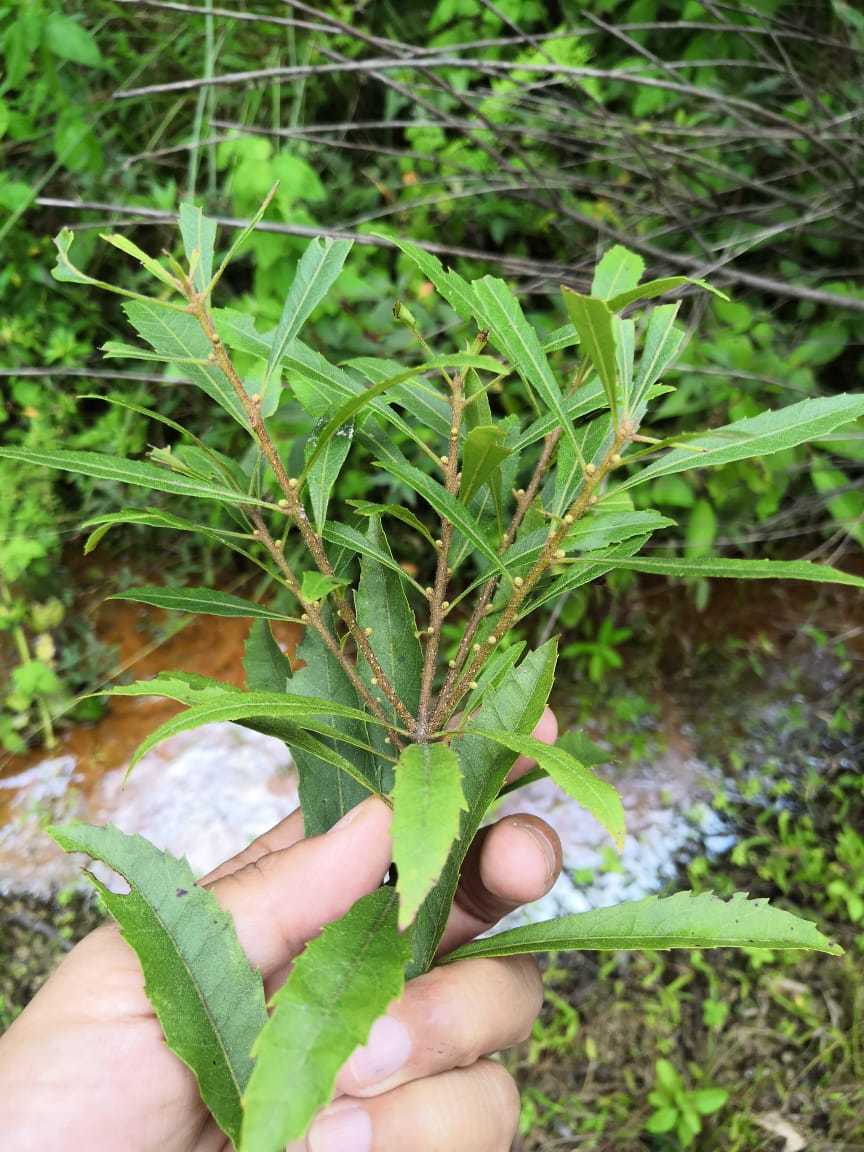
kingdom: Plantae
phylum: Tracheophyta
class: Magnoliopsida
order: Fagales
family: Myricaceae
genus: Morella
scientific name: Morella cerifera
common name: Wax myrtle
